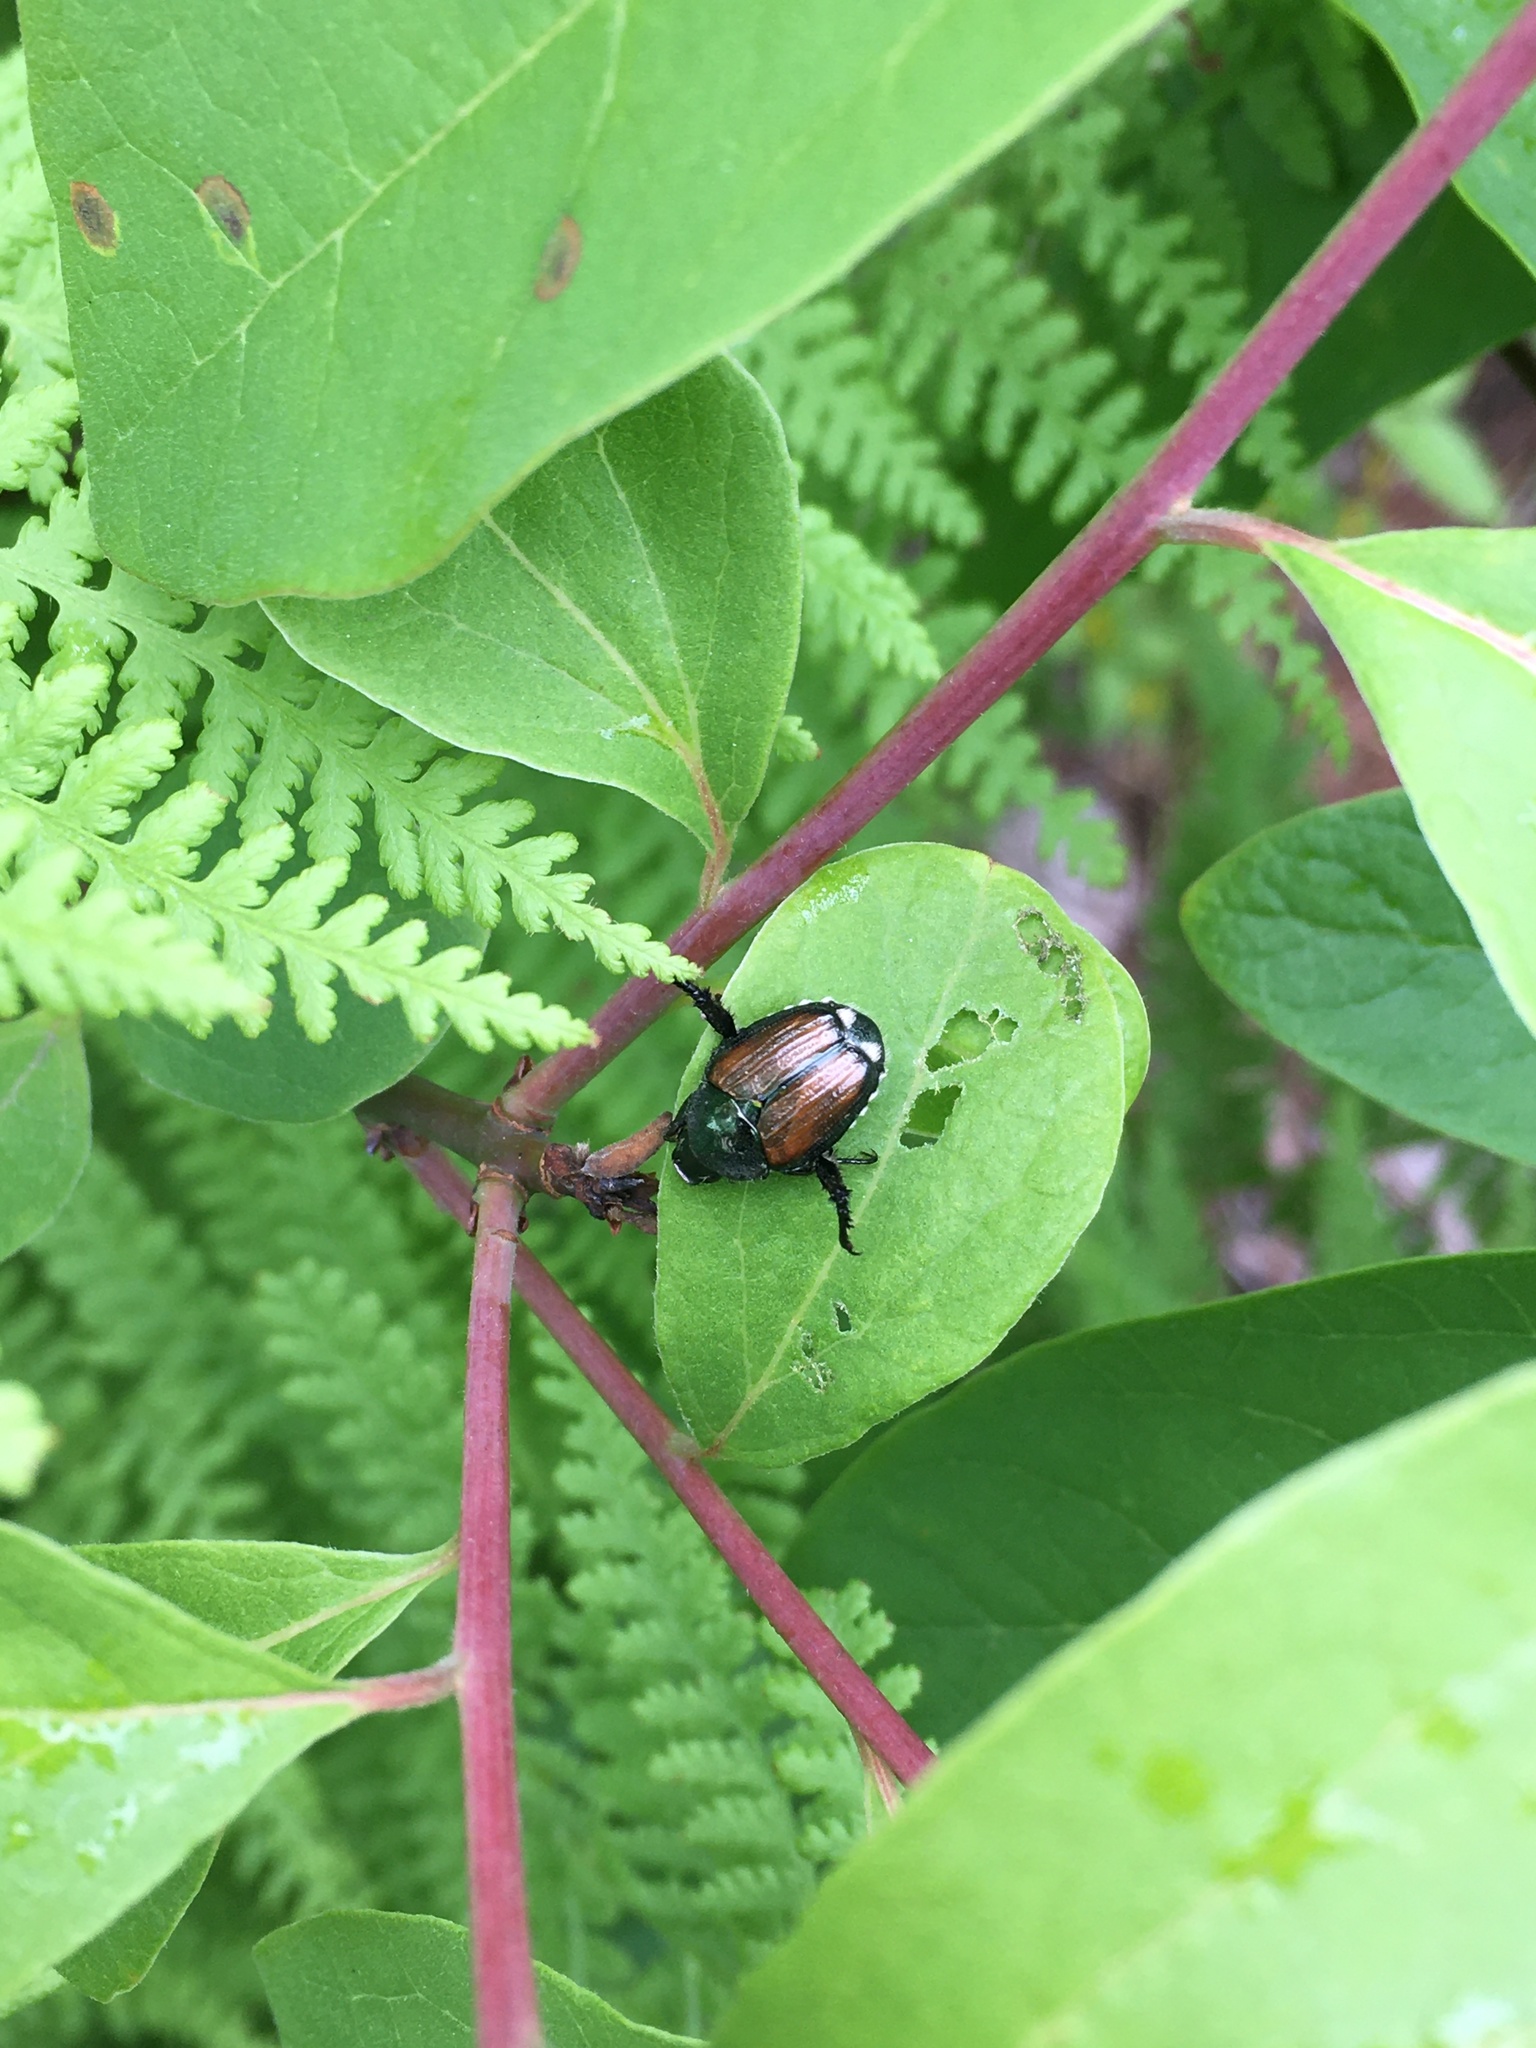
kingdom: Animalia
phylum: Arthropoda
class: Insecta
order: Coleoptera
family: Scarabaeidae
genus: Popillia
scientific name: Popillia japonica
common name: Japanese beetle
